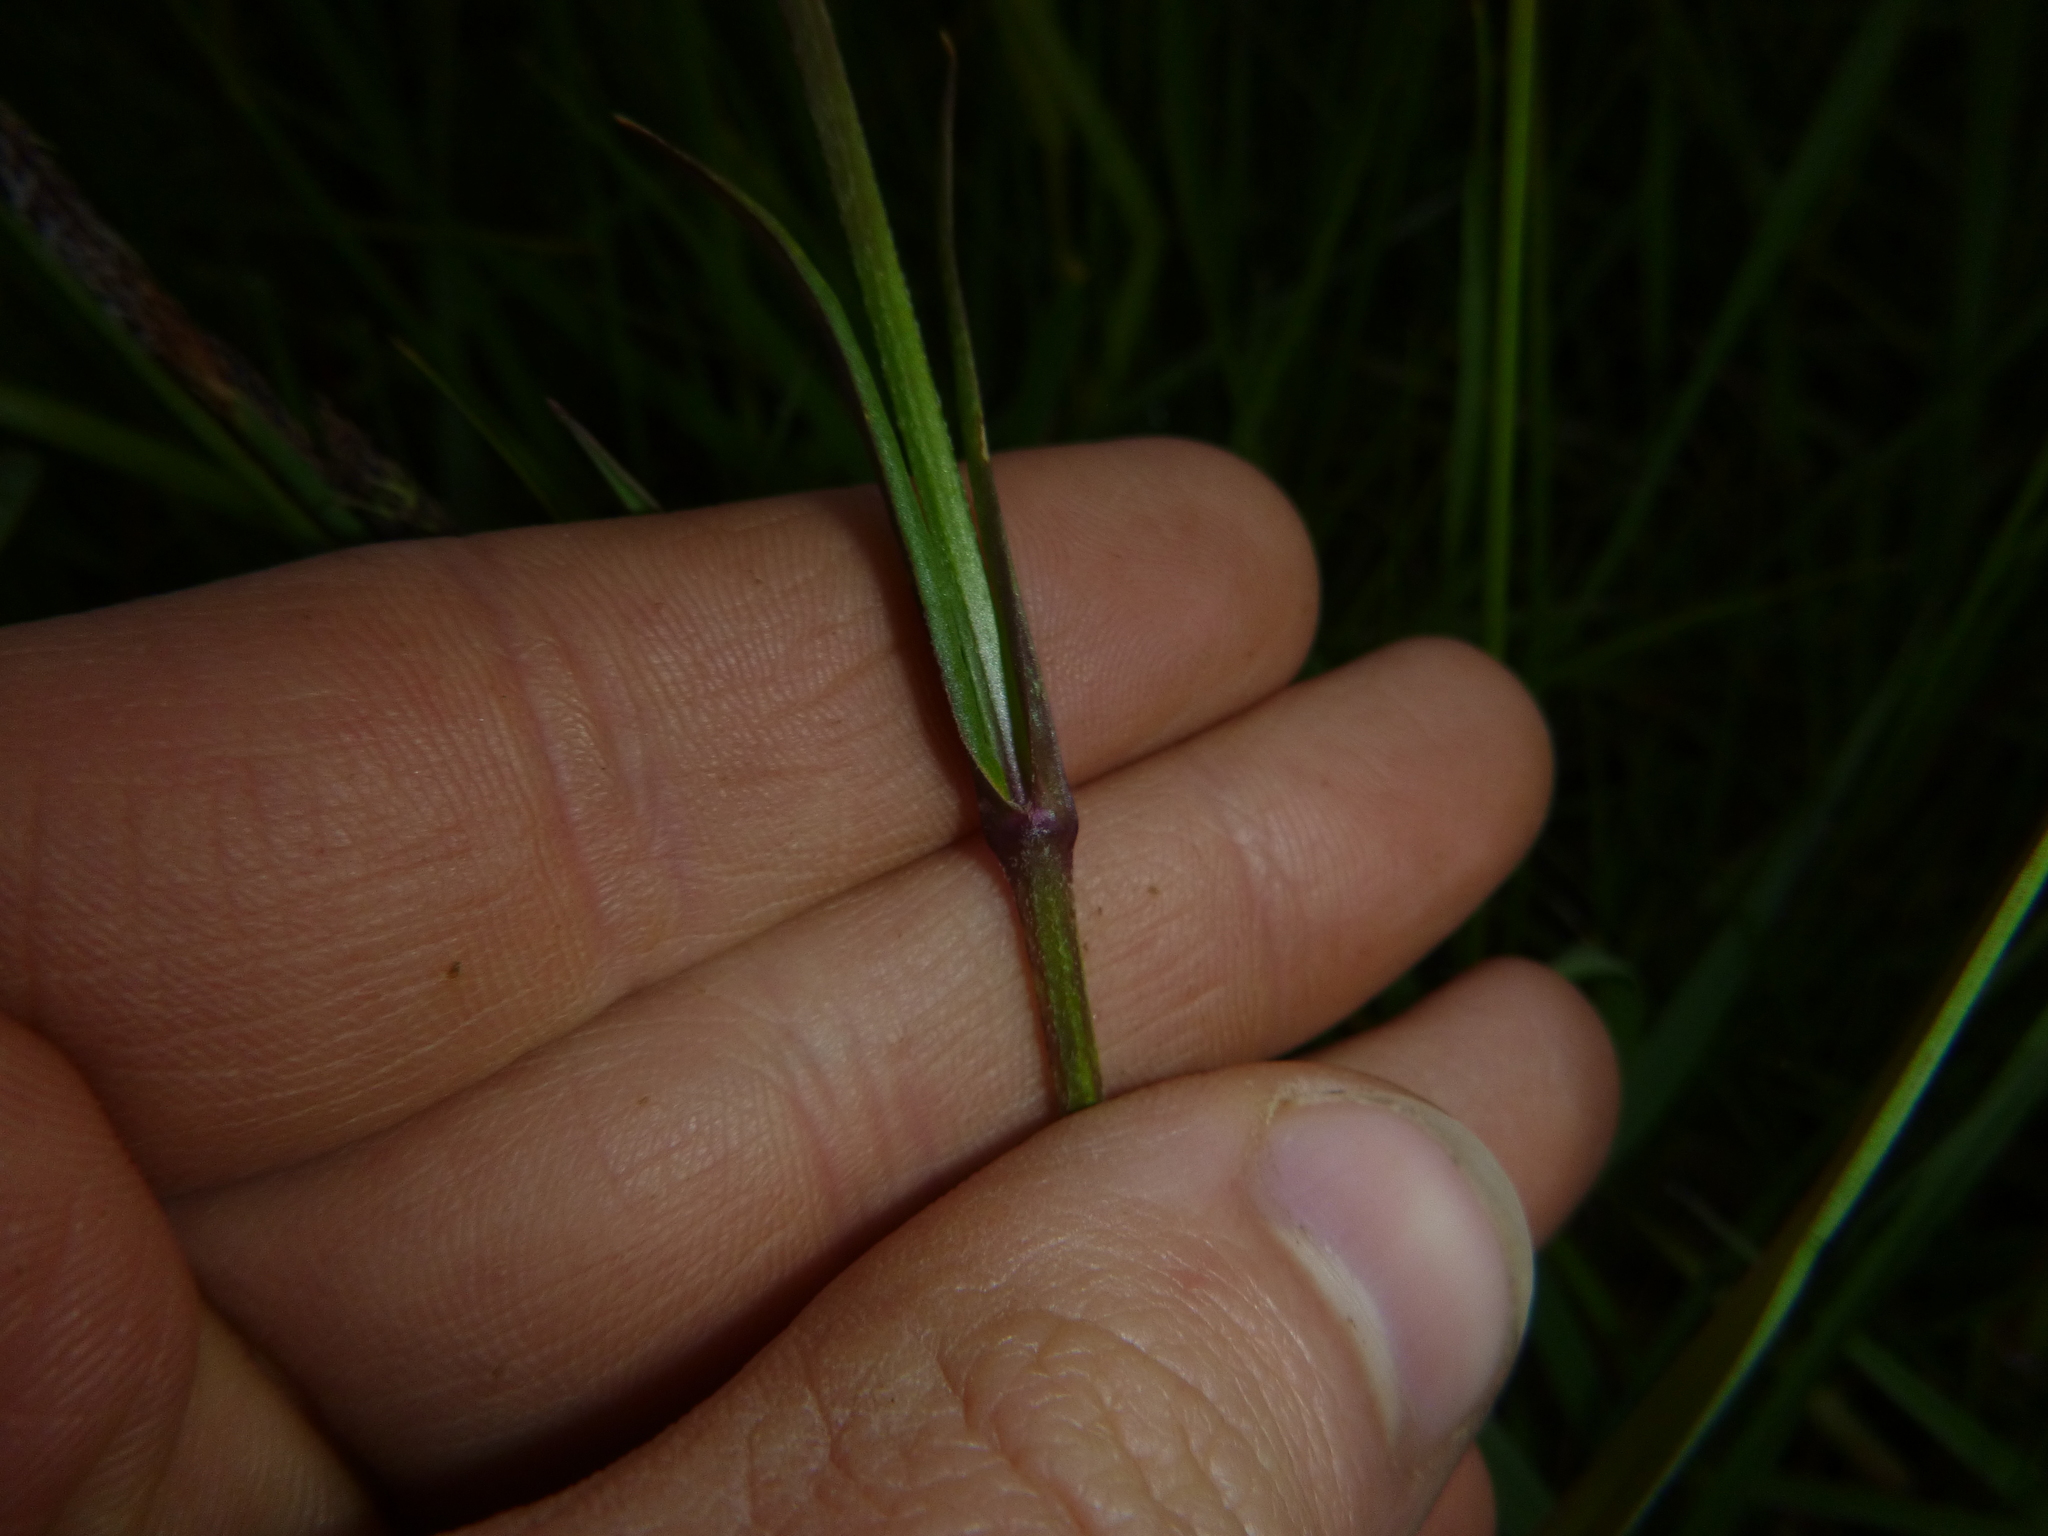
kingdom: Plantae
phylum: Tracheophyta
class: Magnoliopsida
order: Caryophyllales
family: Caryophyllaceae
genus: Silene
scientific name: Silene flos-cuculi
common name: Ragged-robin
